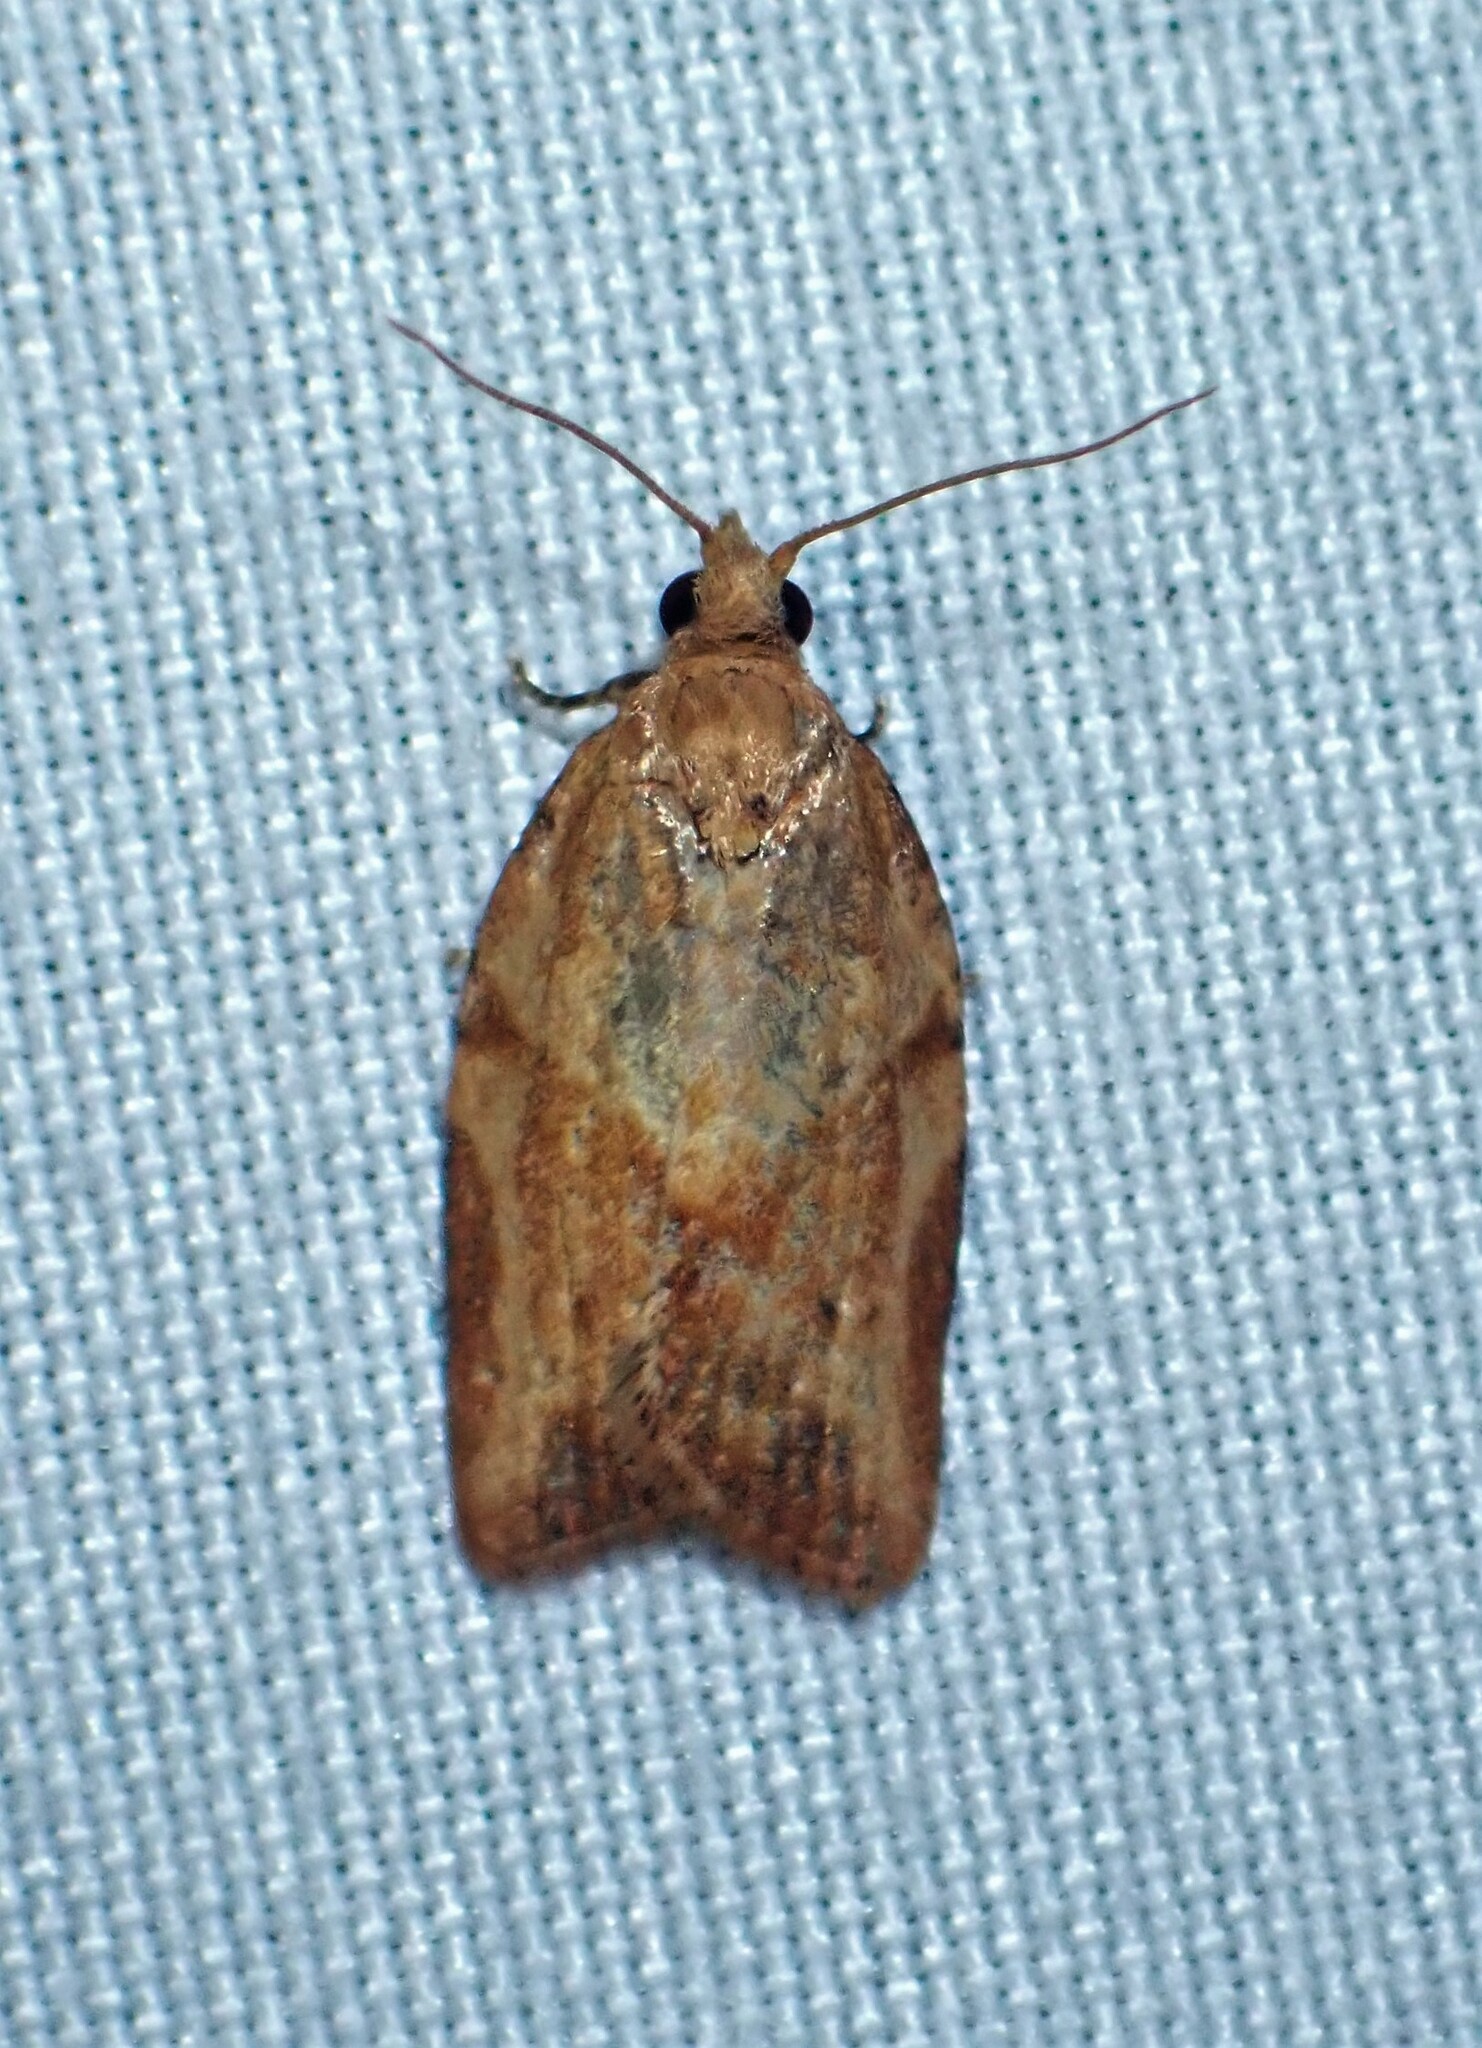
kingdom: Animalia
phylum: Arthropoda
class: Insecta
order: Lepidoptera
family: Tortricidae
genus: Epiphyas
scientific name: Epiphyas postvittana
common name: Light brown apple moth
